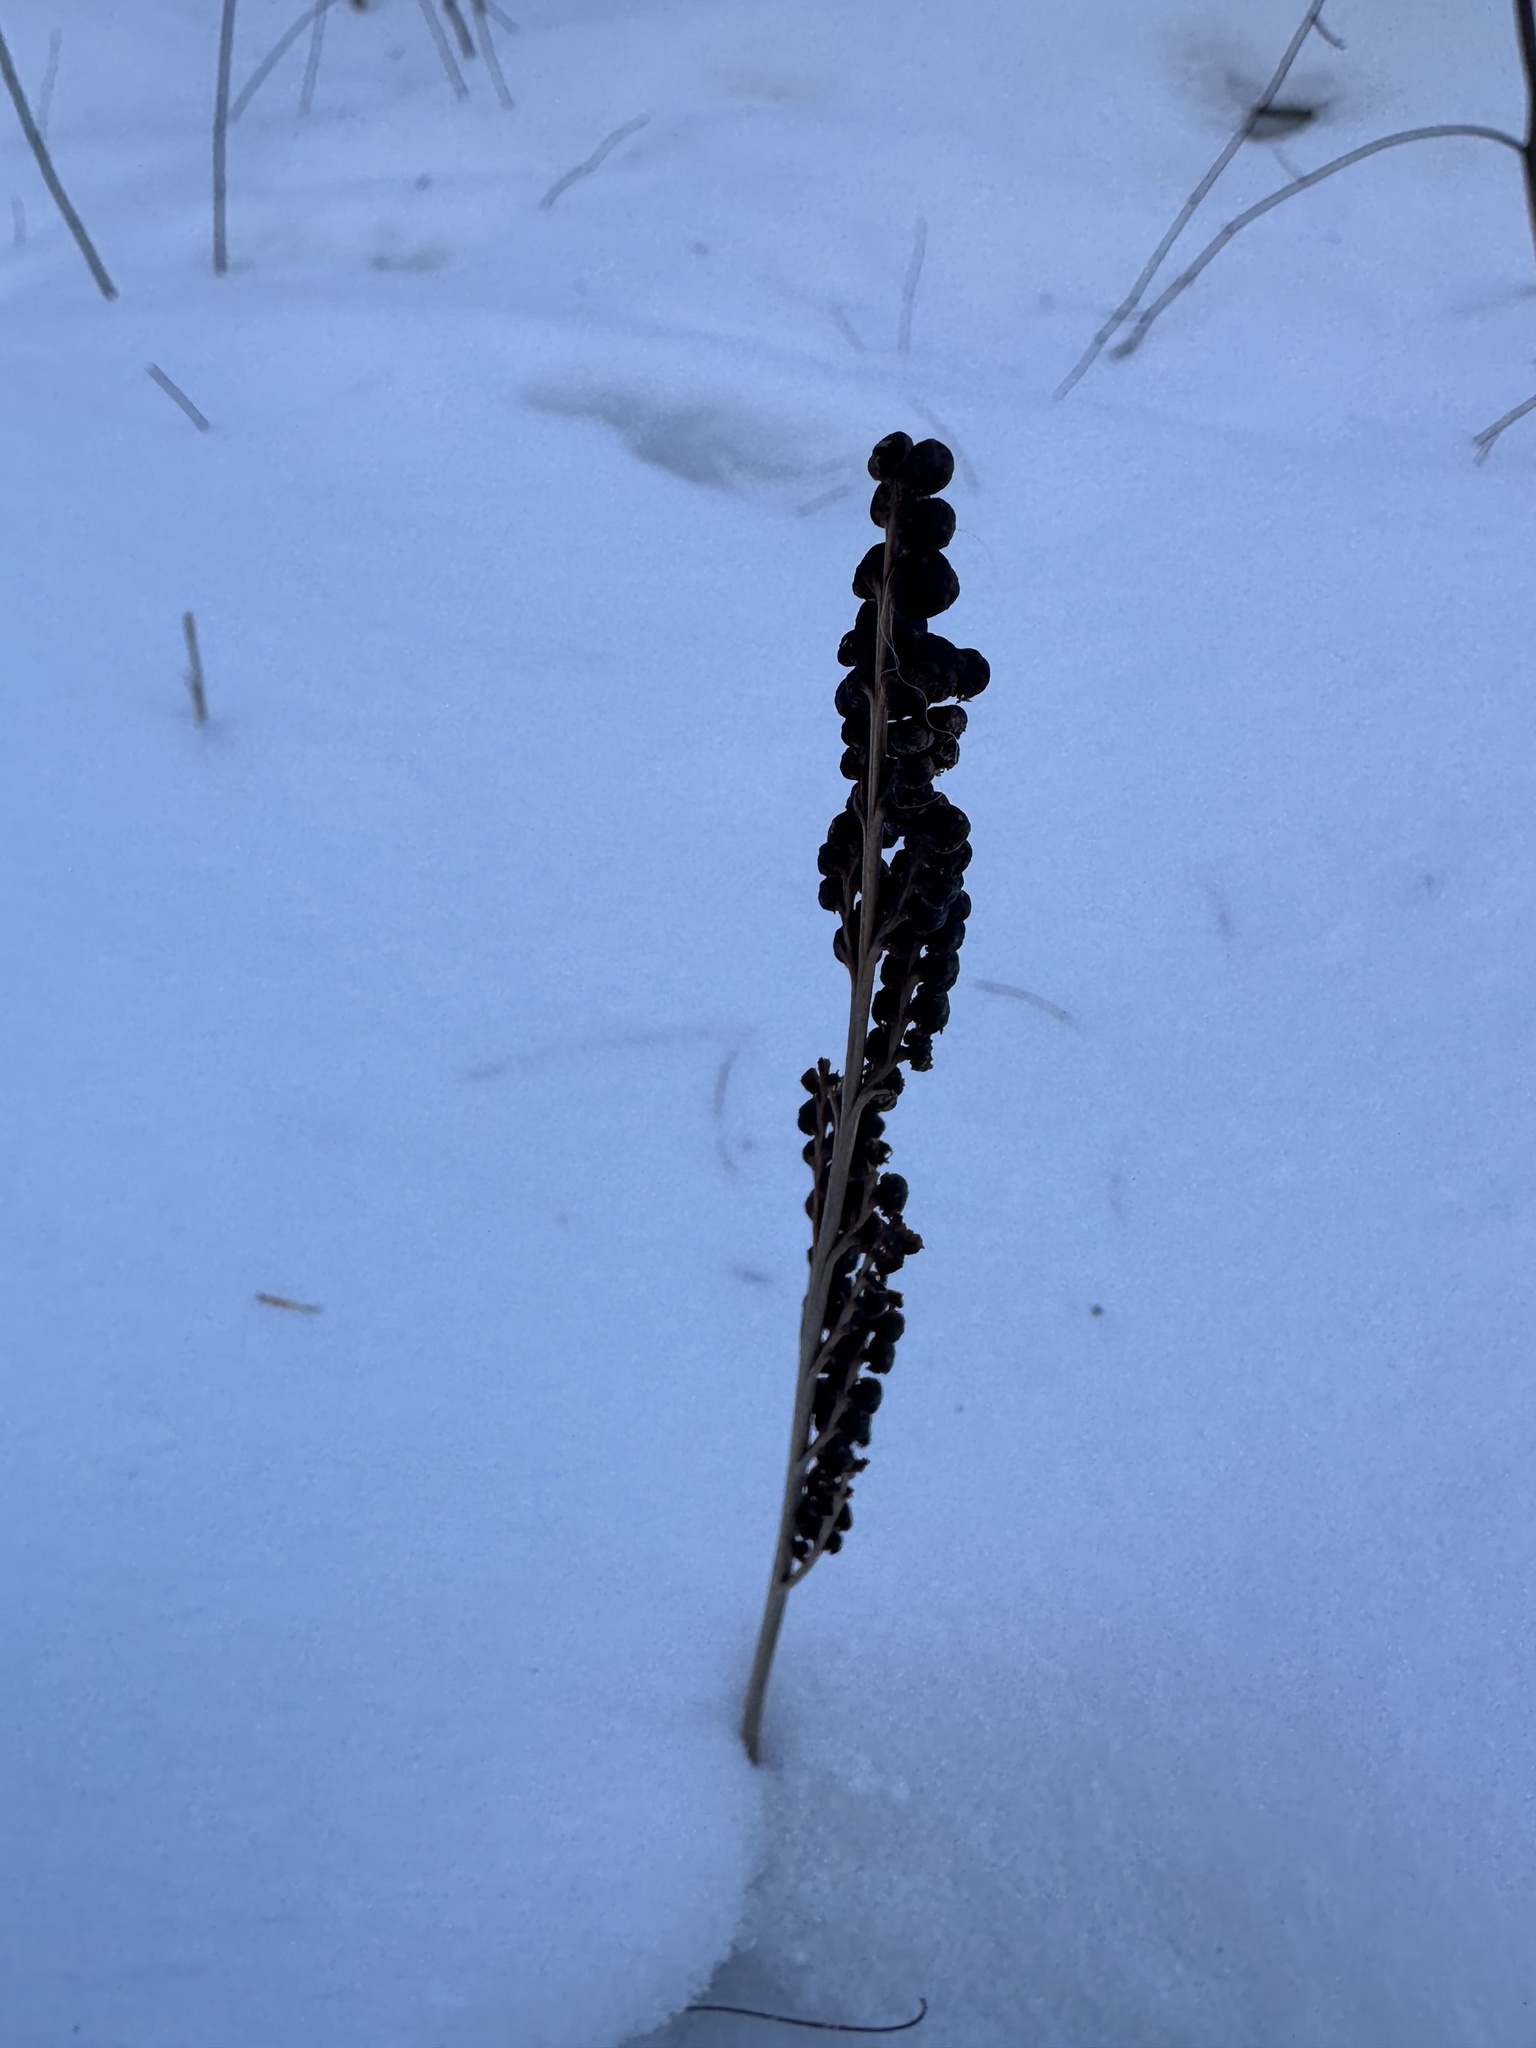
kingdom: Plantae
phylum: Tracheophyta
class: Polypodiopsida
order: Polypodiales
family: Onocleaceae
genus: Onoclea
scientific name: Onoclea sensibilis
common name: Sensitive fern
